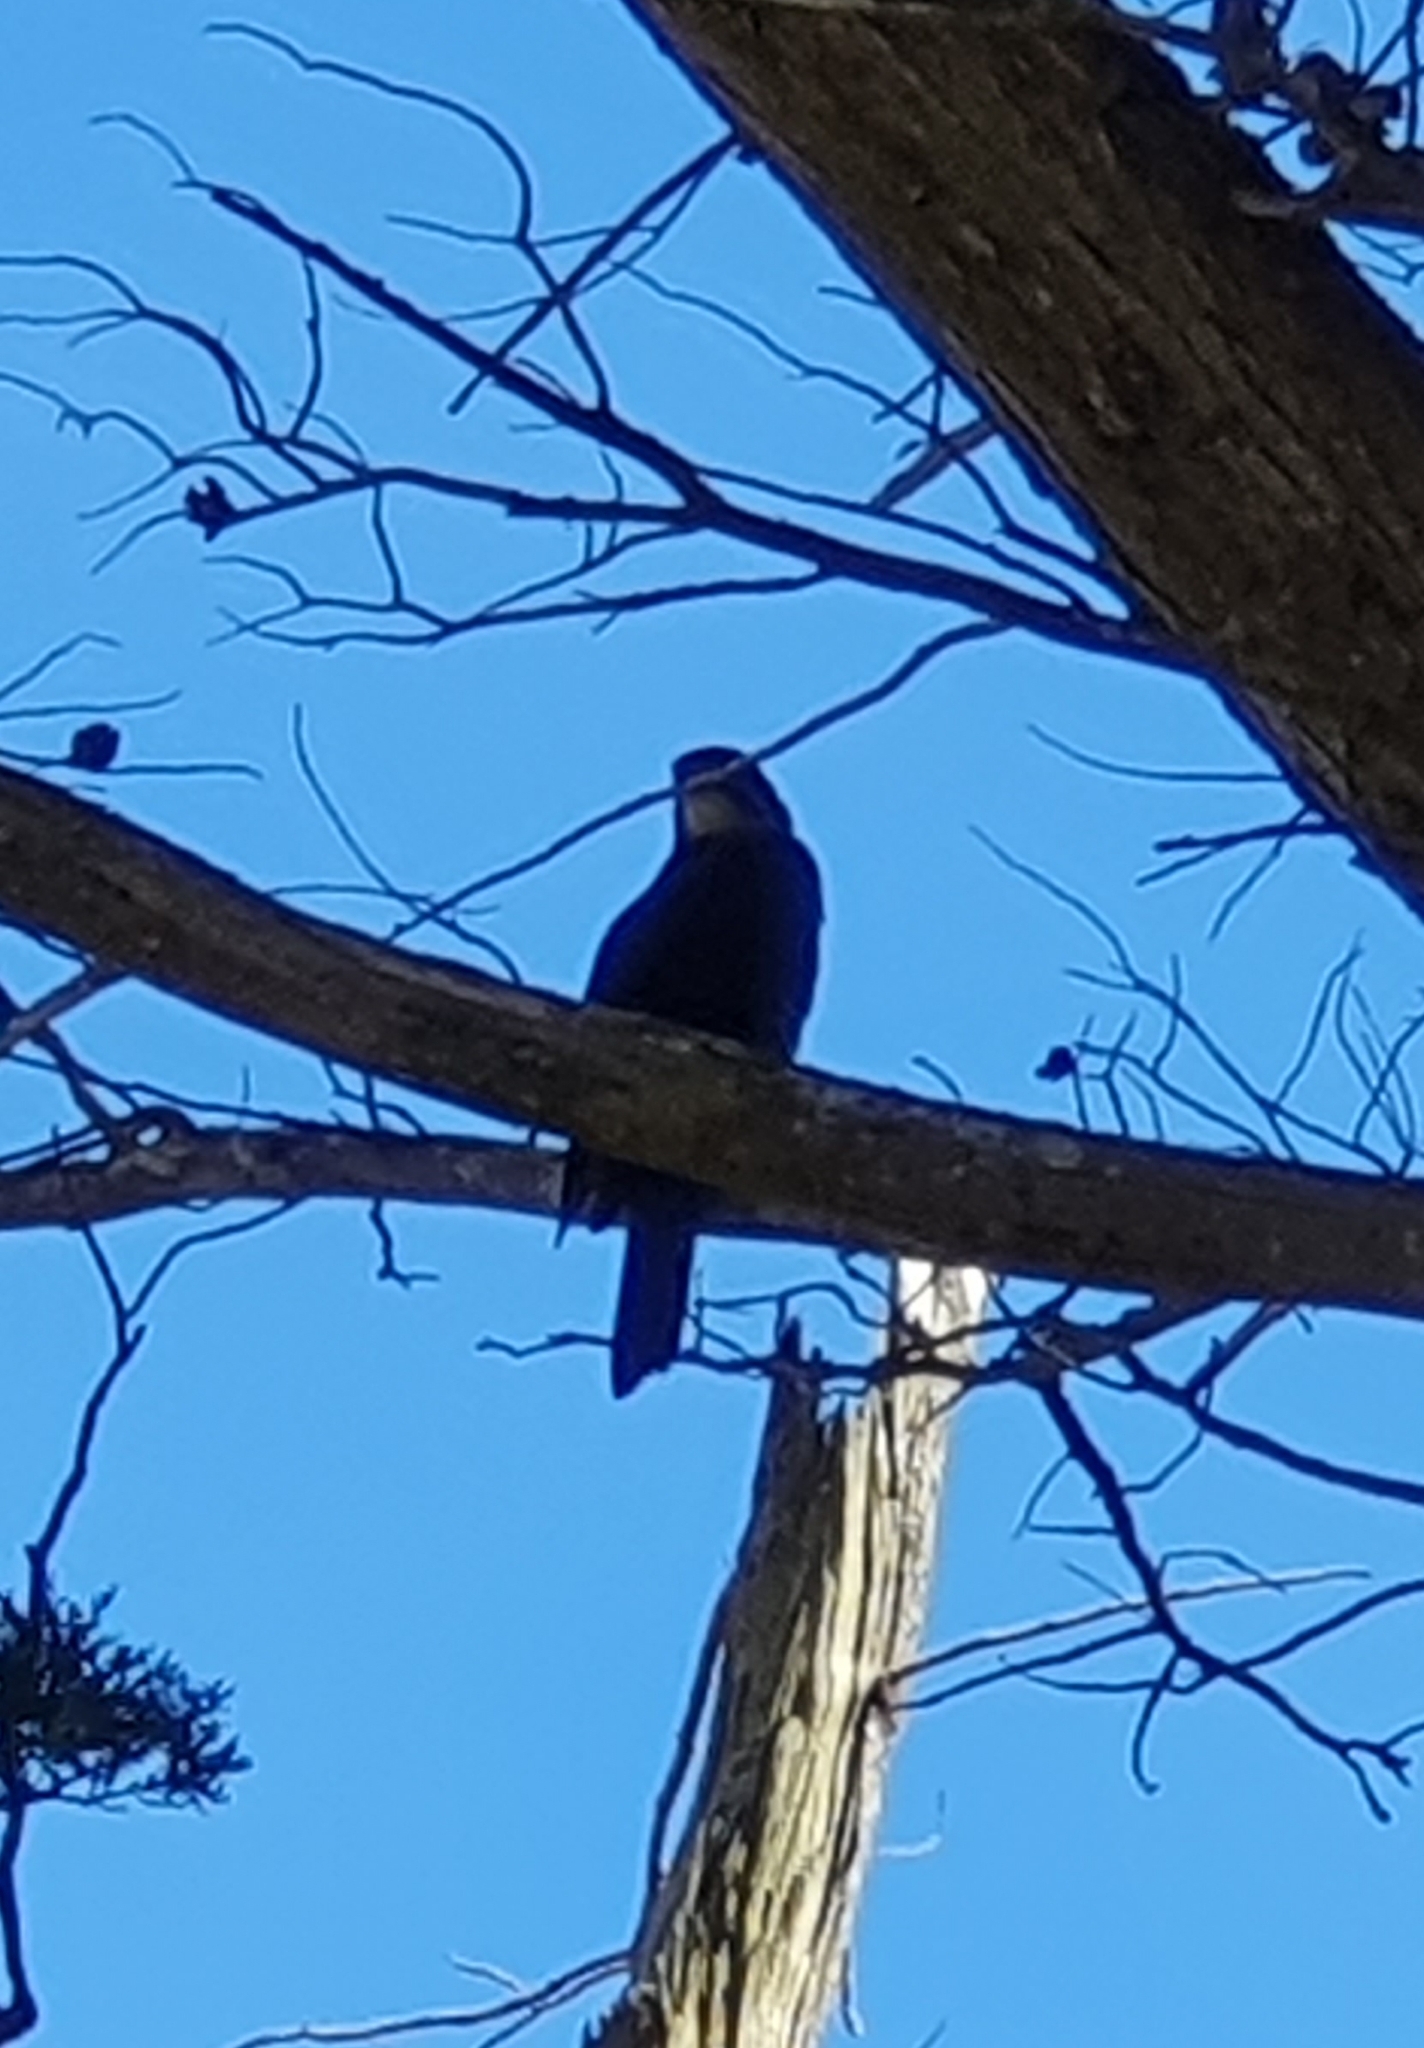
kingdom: Animalia
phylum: Chordata
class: Aves
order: Falconiformes
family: Falconidae
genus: Falco
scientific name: Falco novaeseelandiae
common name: New zealand falcon
